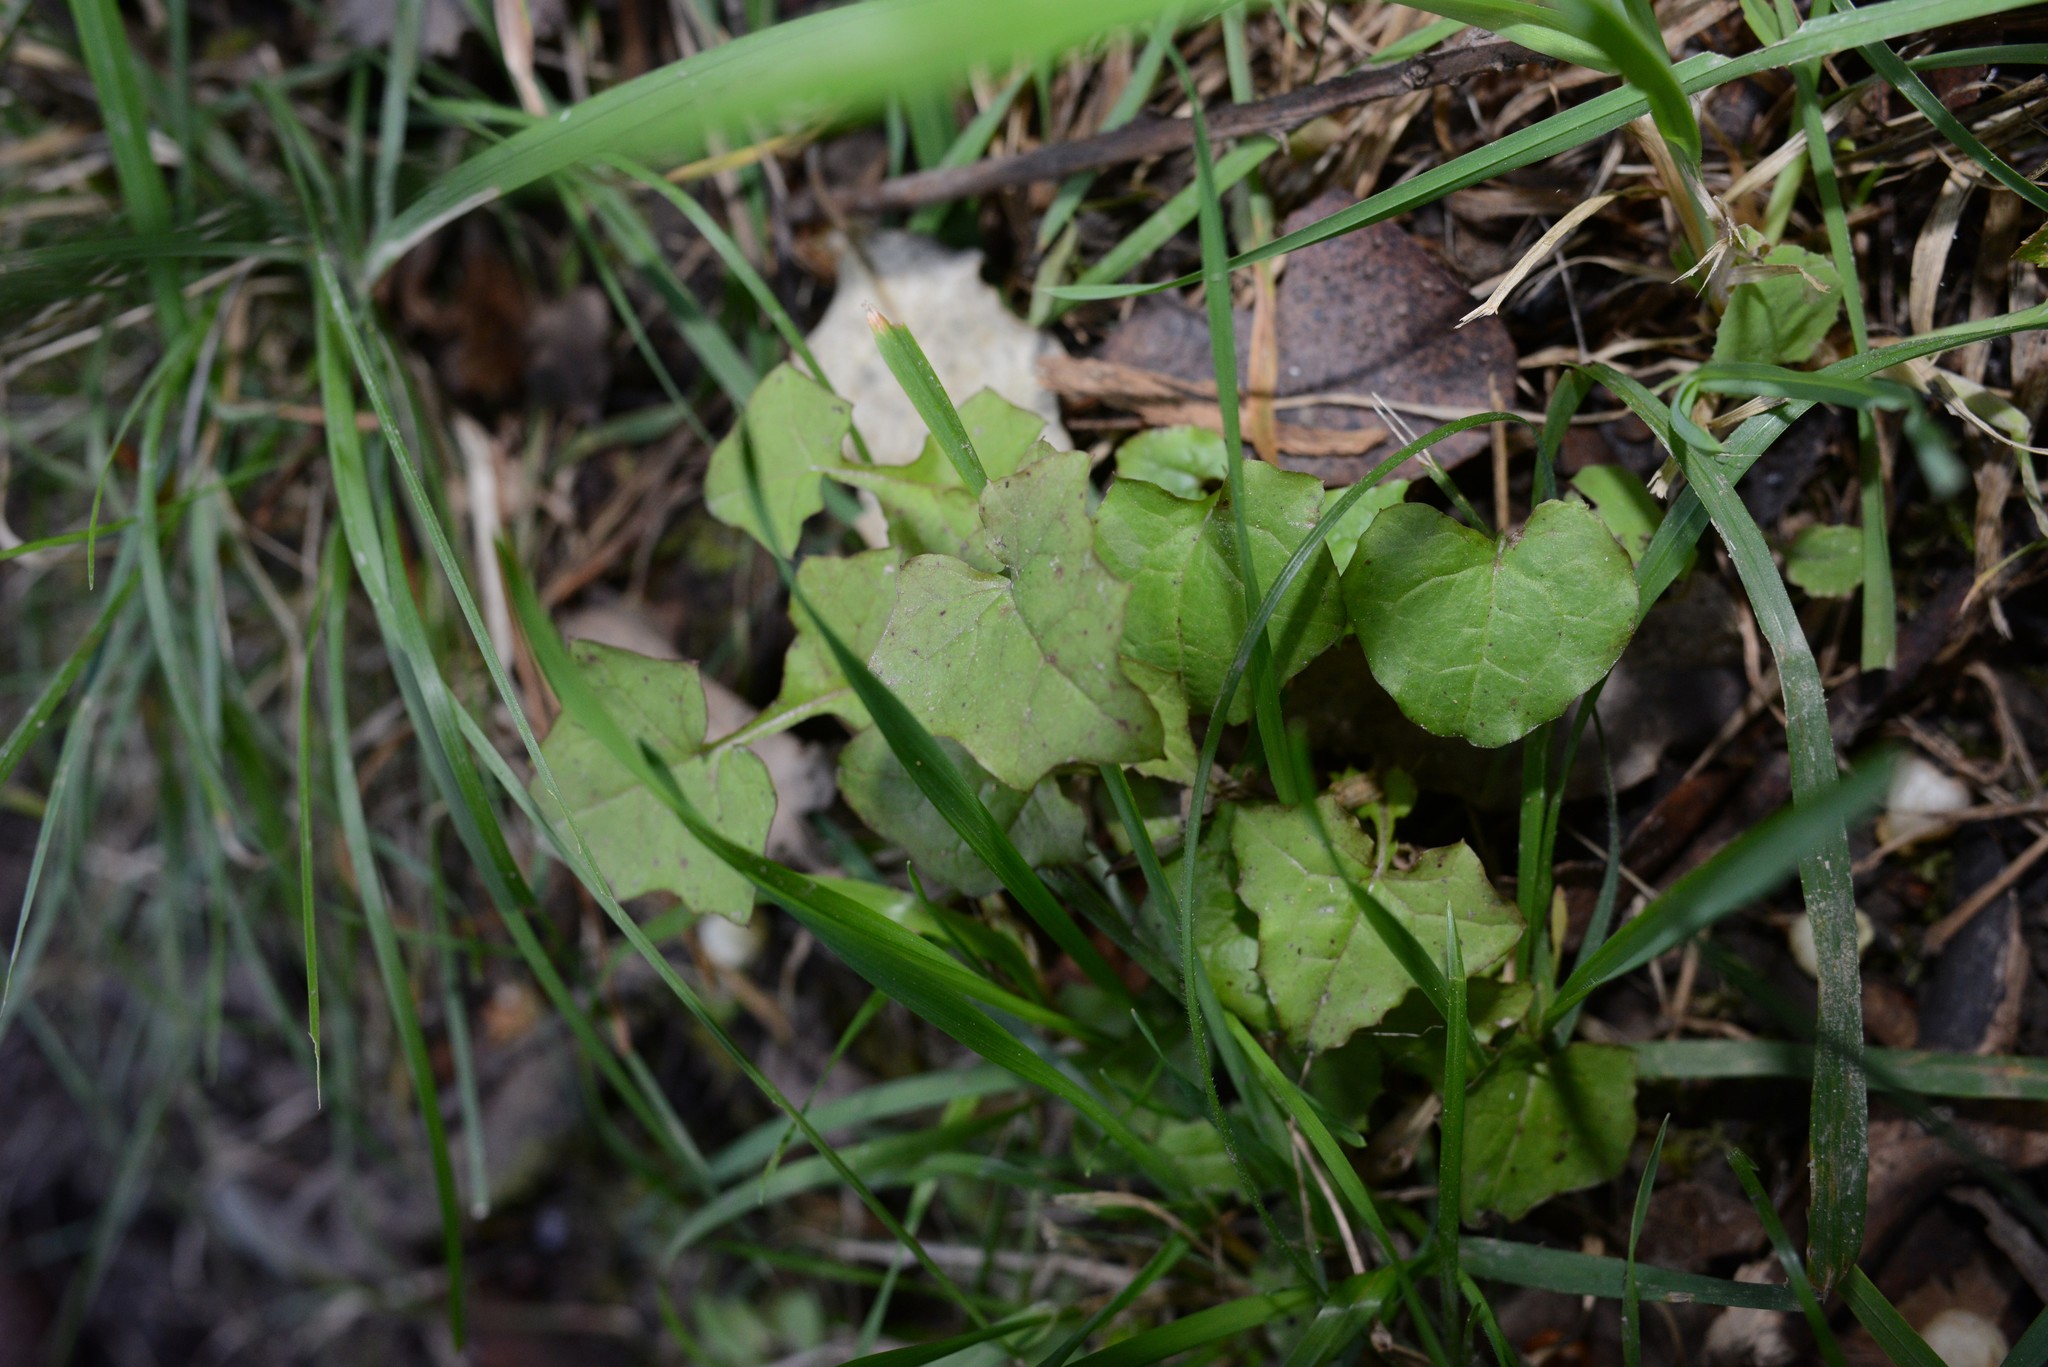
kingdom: Plantae
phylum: Tracheophyta
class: Magnoliopsida
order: Asterales
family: Asteraceae
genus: Mycelis
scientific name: Mycelis muralis
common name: Wall lettuce
